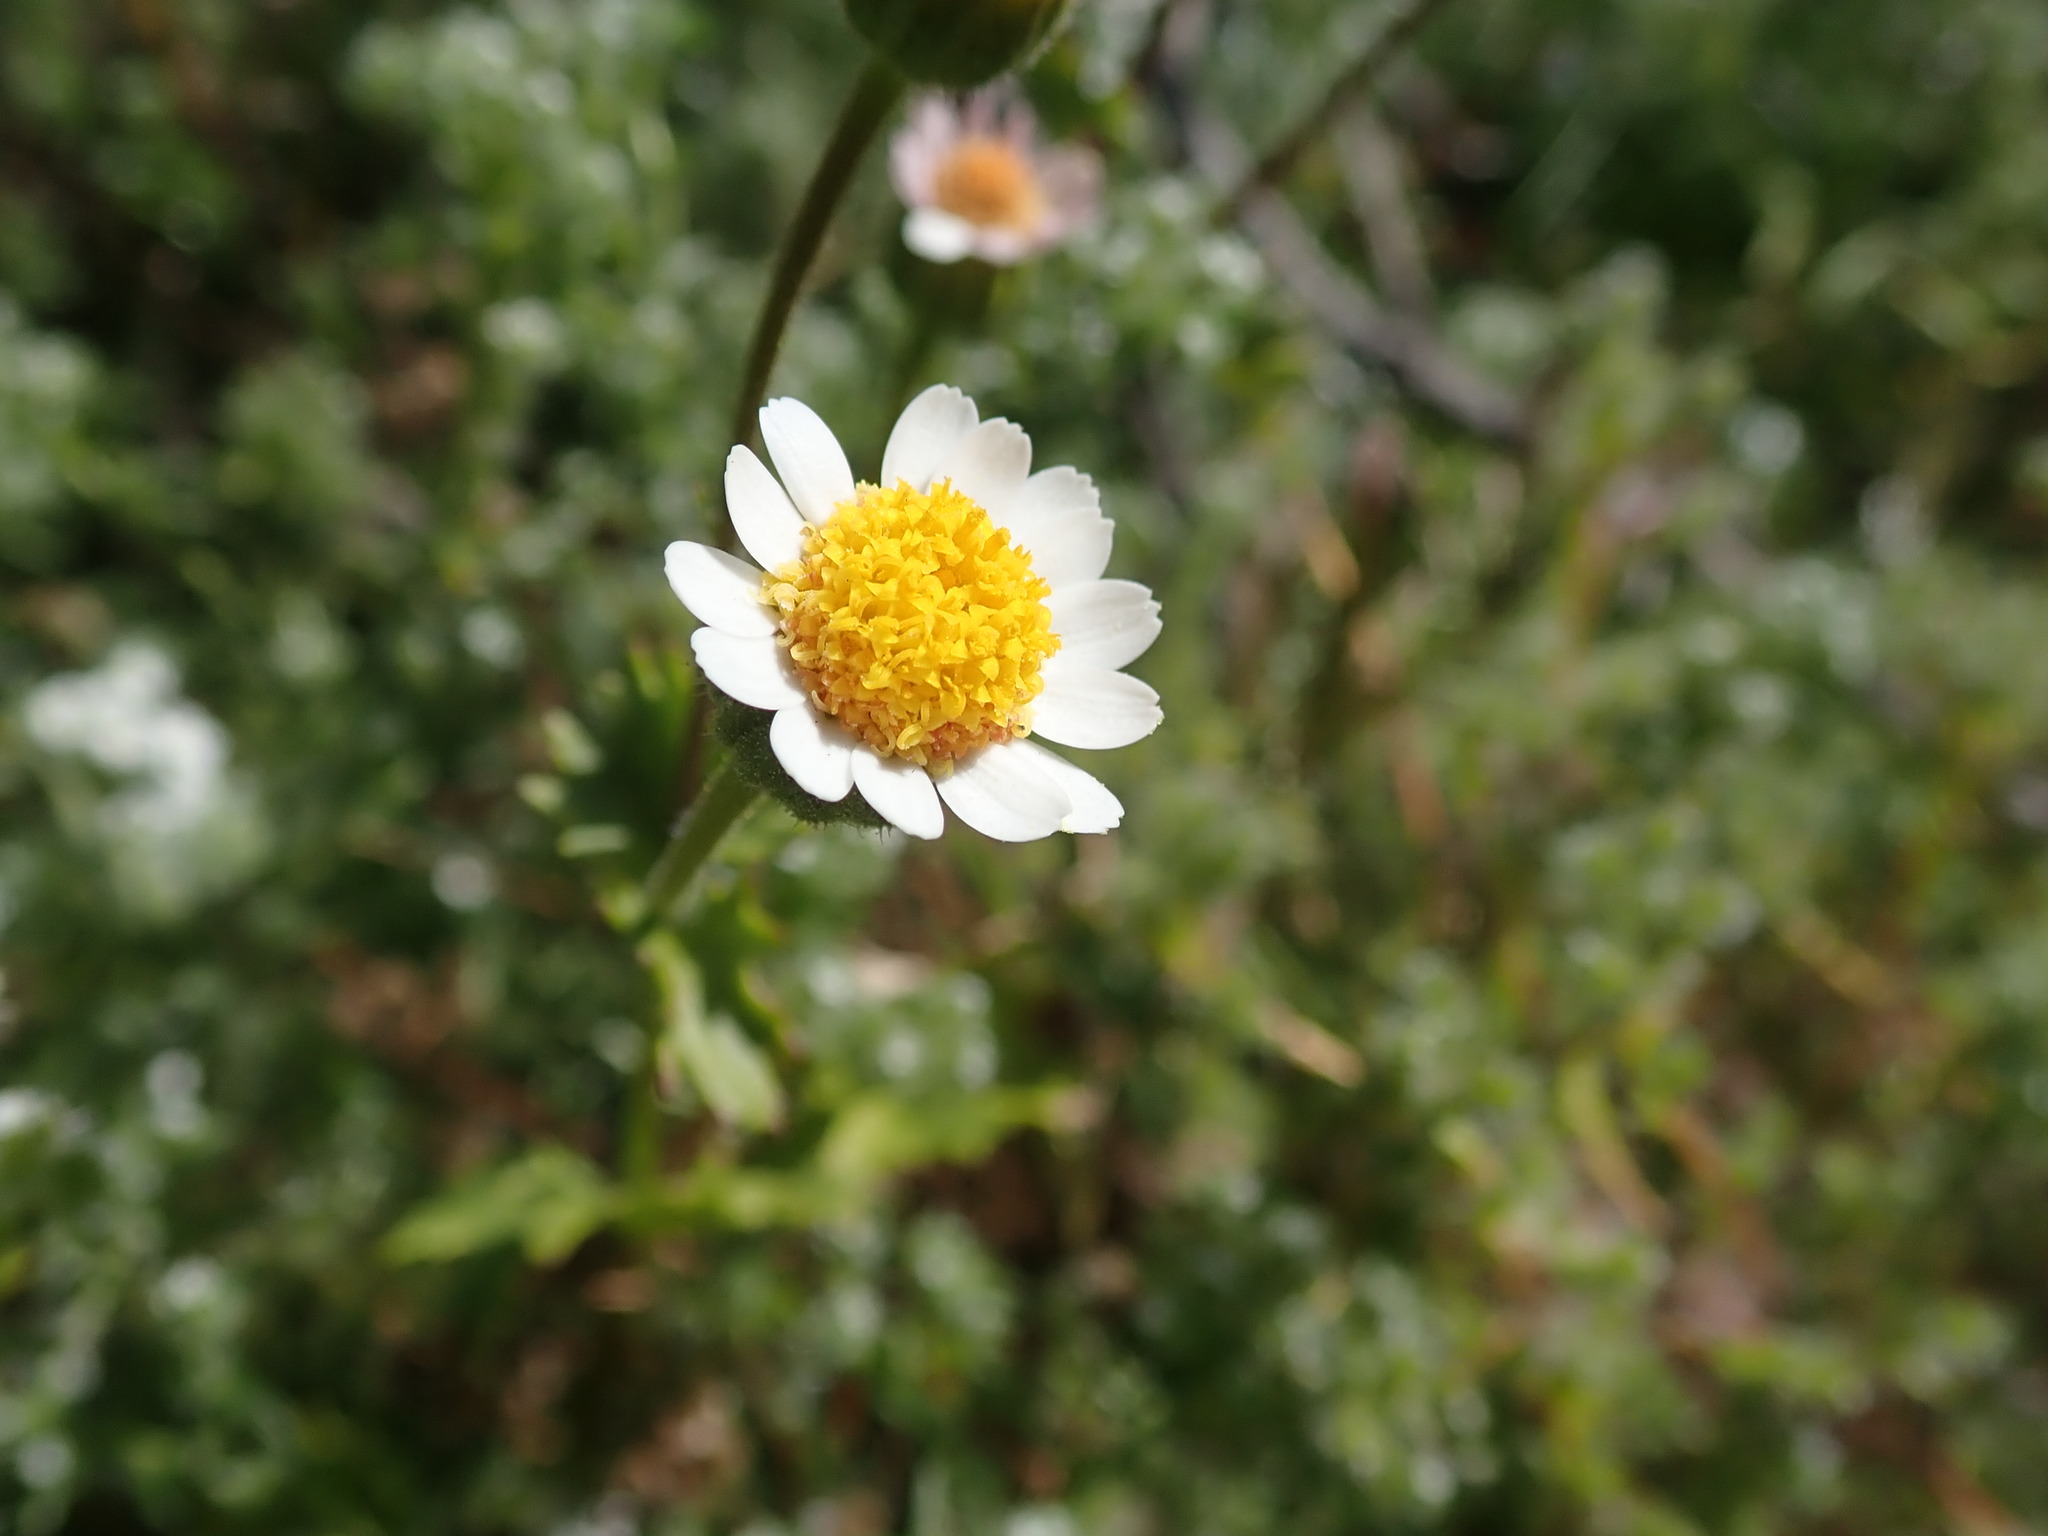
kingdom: Plantae
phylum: Tracheophyta
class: Magnoliopsida
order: Asterales
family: Asteraceae
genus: Laphamia
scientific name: Laphamia emoryi
